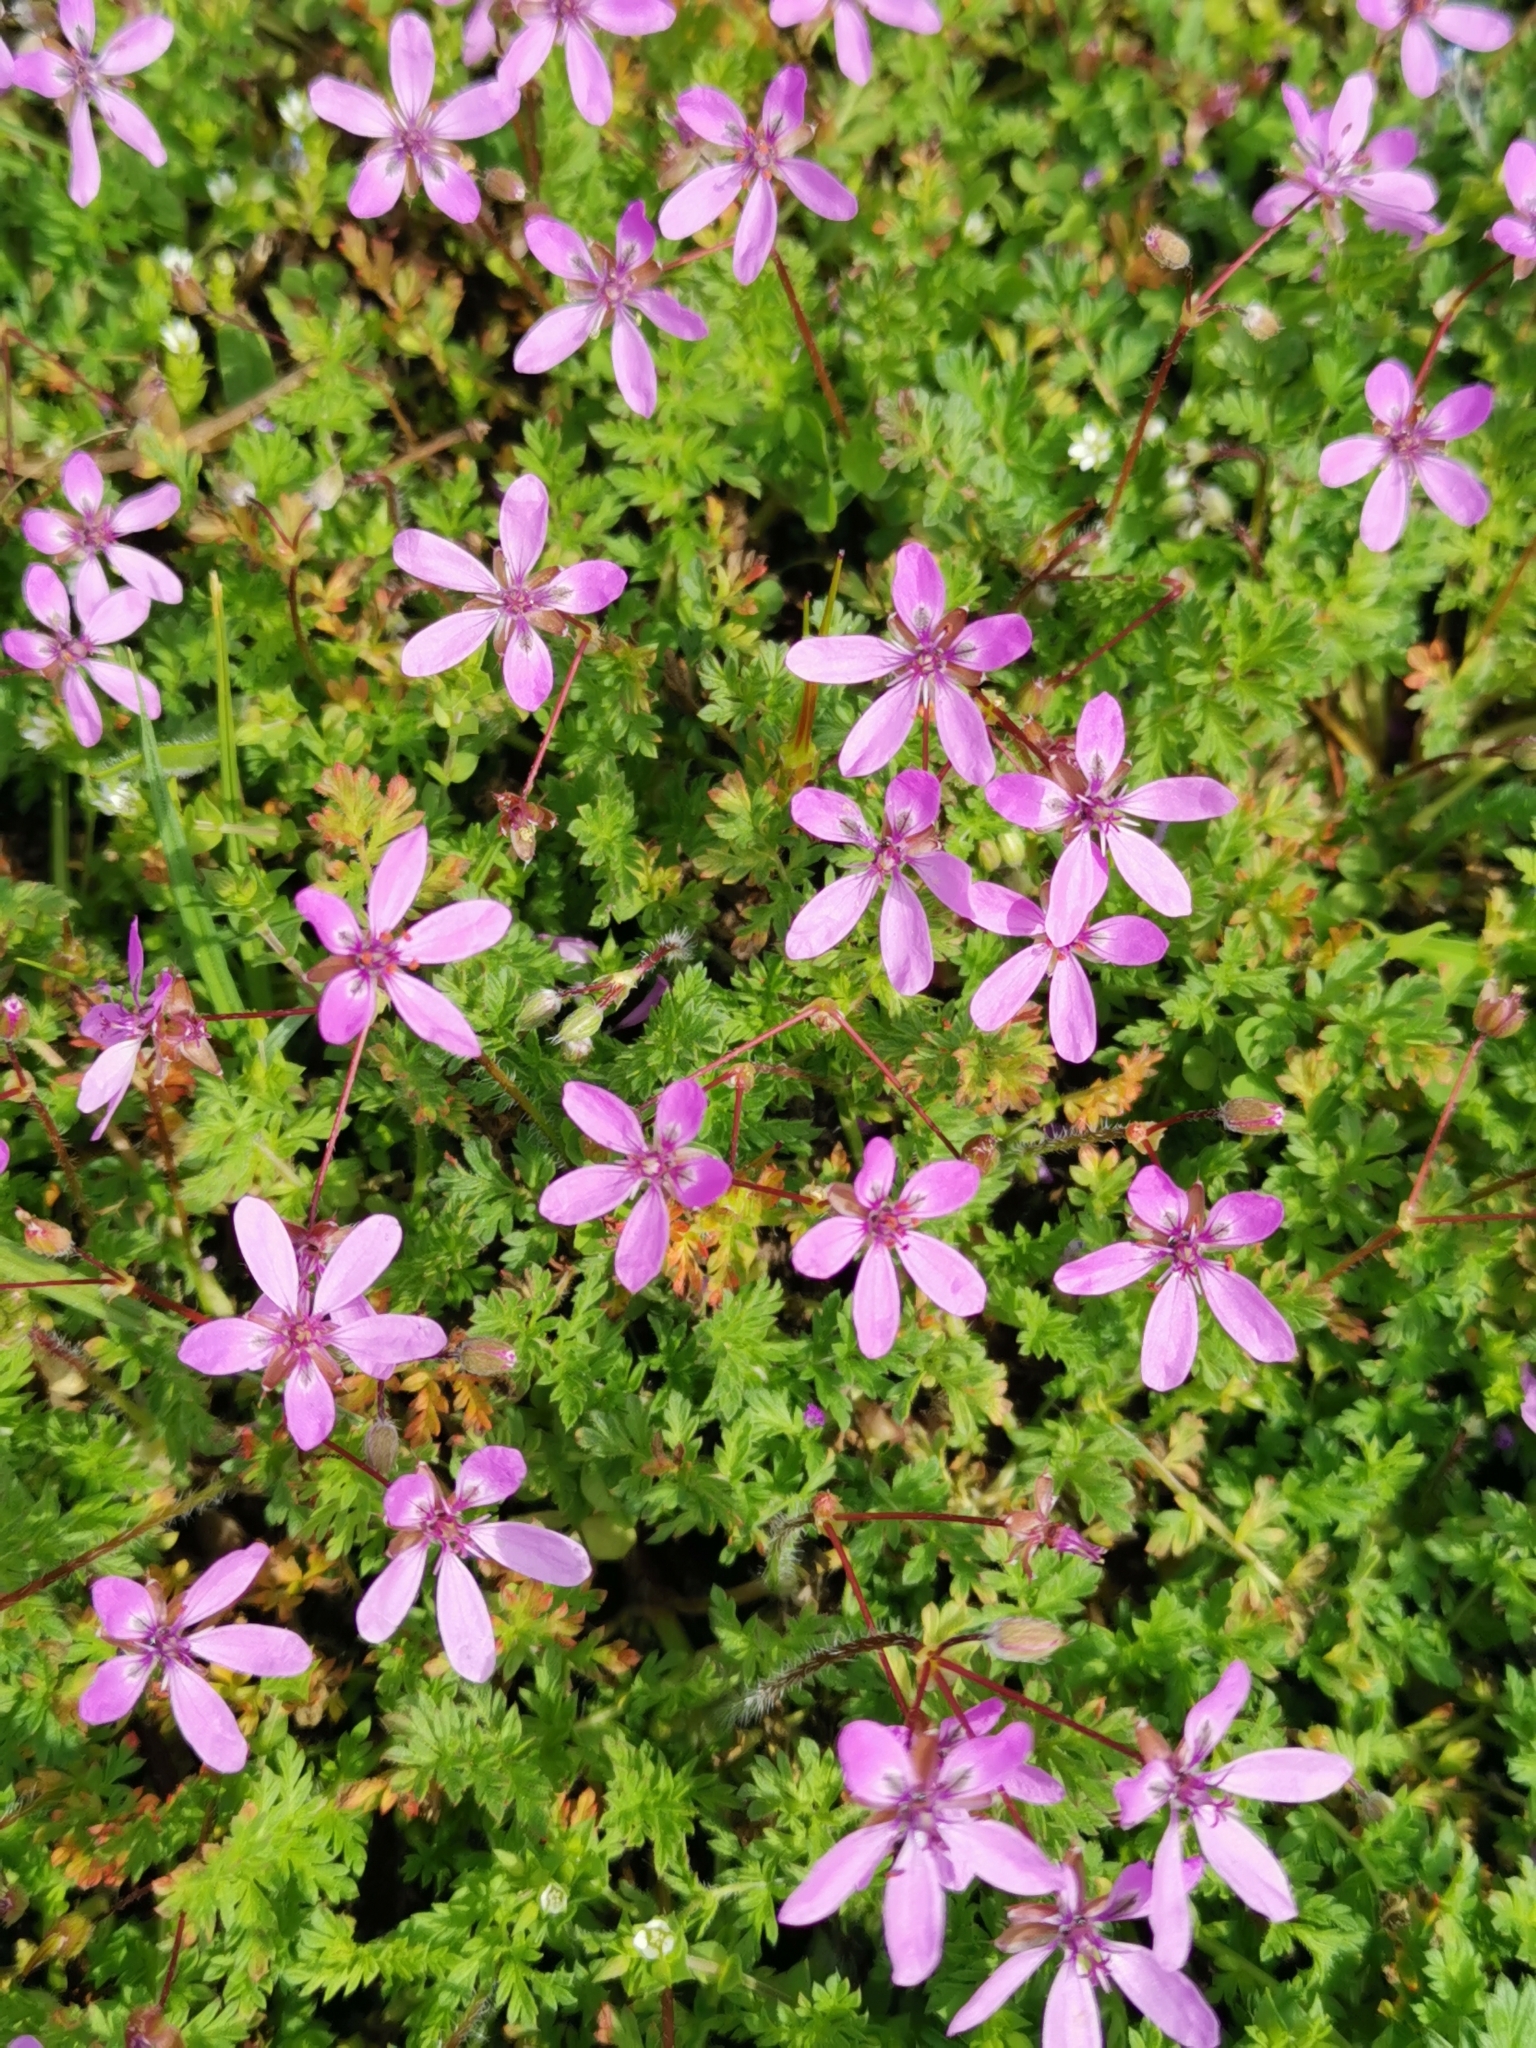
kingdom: Plantae
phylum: Tracheophyta
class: Magnoliopsida
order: Geraniales
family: Geraniaceae
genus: Erodium
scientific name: Erodium cicutarium
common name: Common stork's-bill
